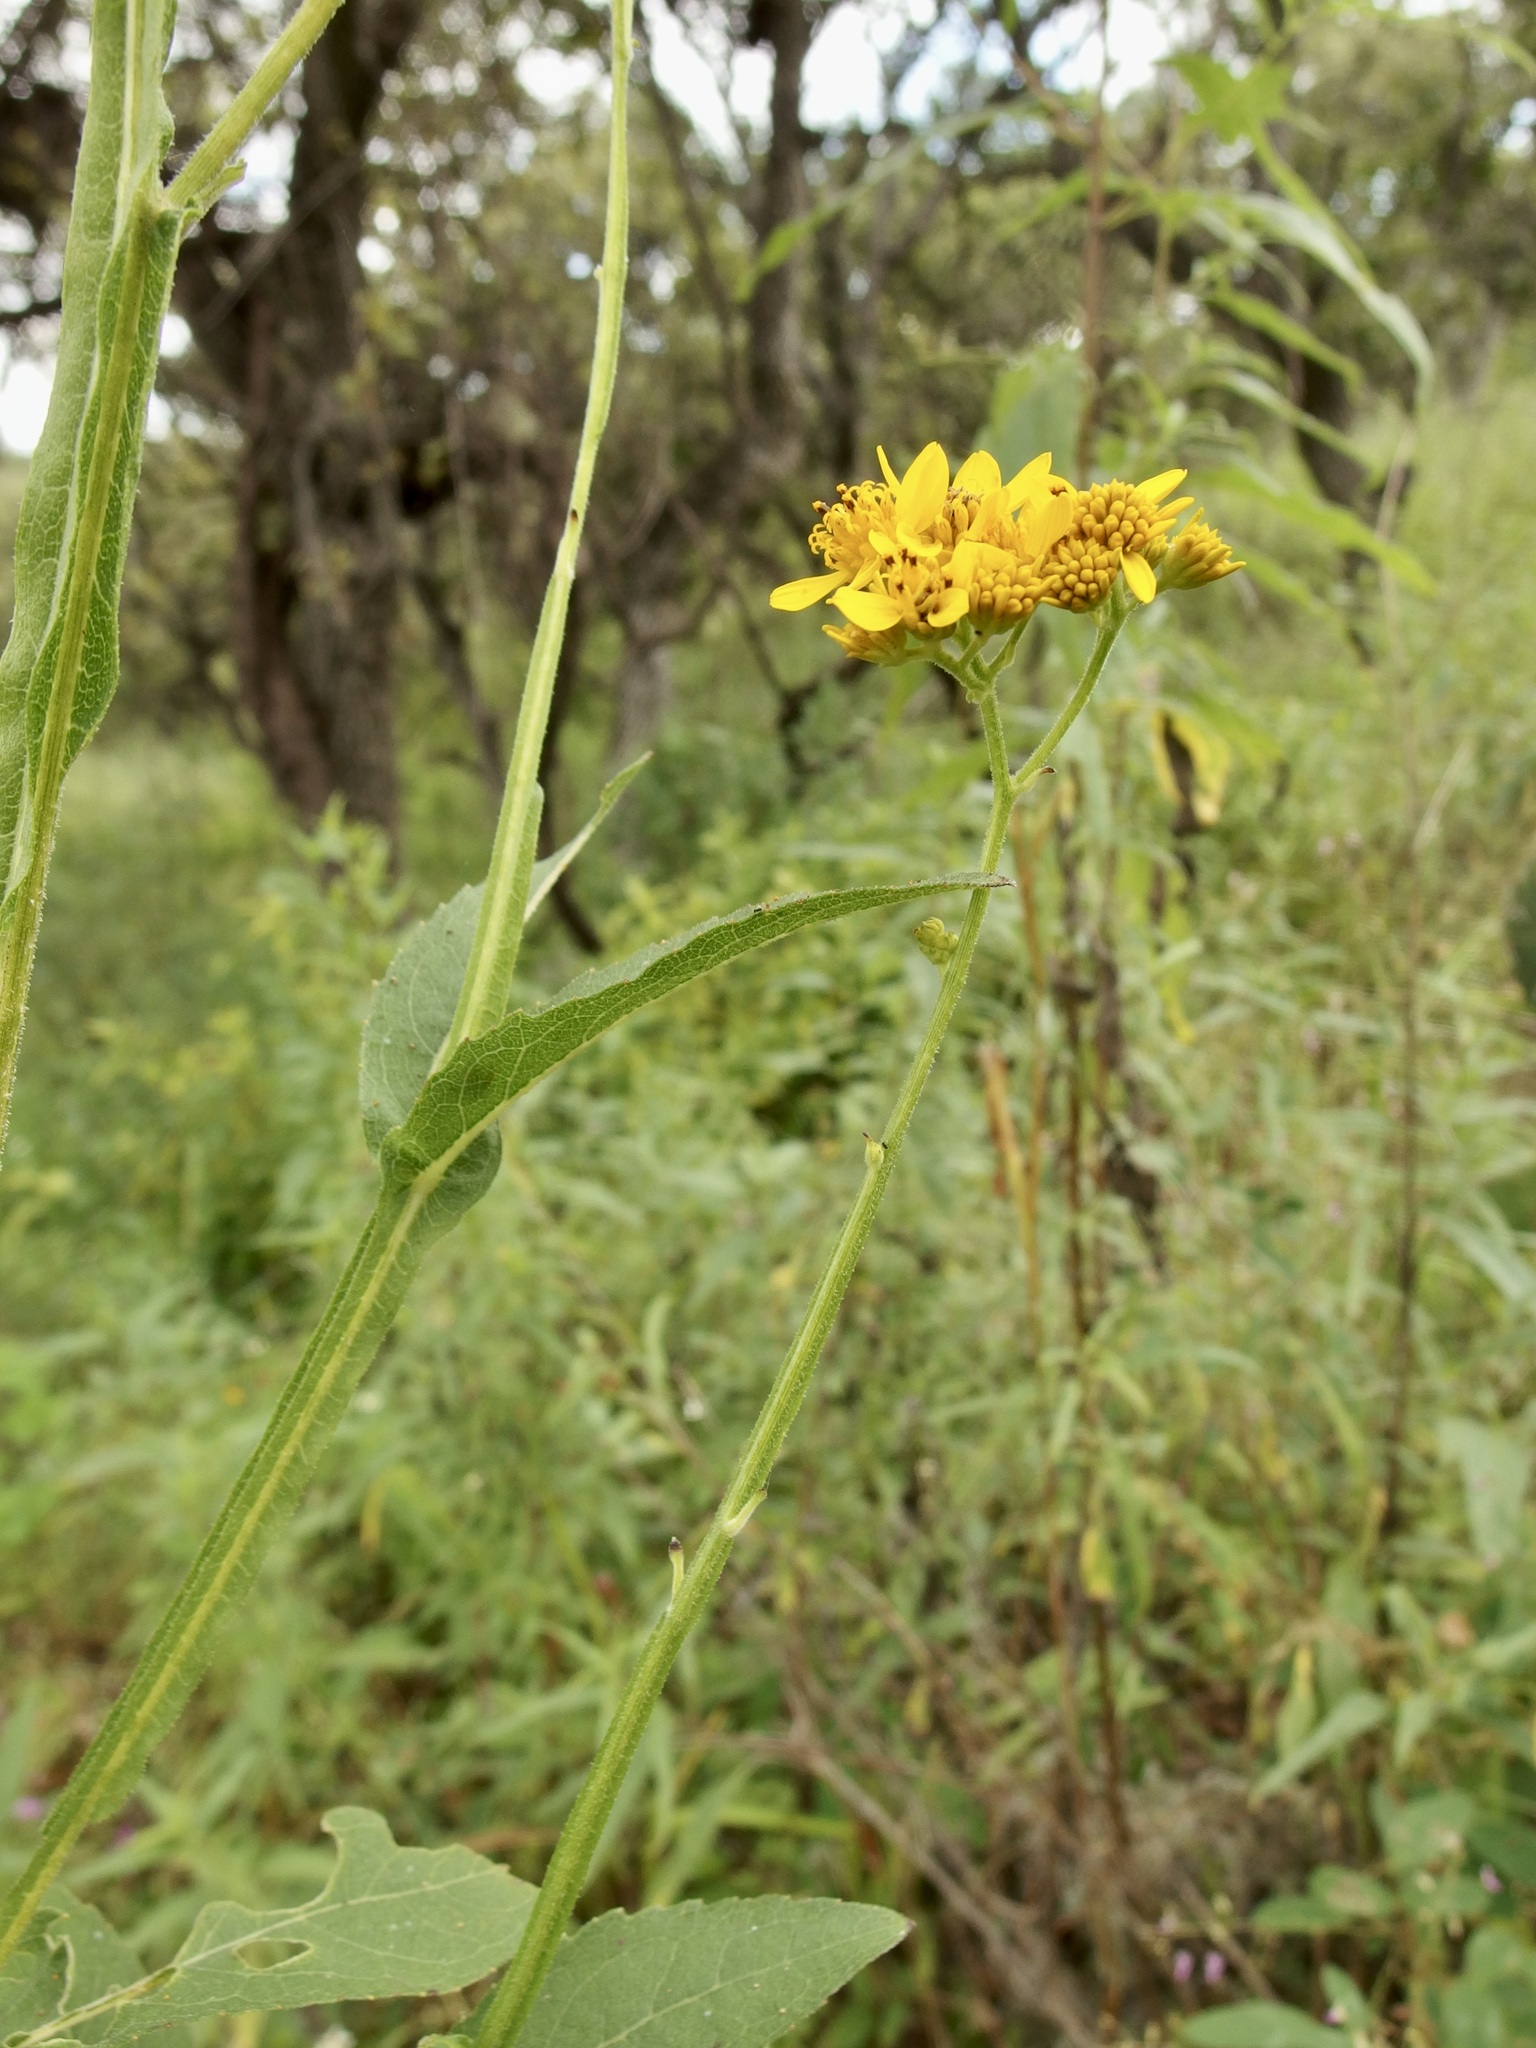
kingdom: Plantae
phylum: Tracheophyta
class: Magnoliopsida
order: Asterales
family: Asteraceae
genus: Verbesina
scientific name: Verbesina gentryi
